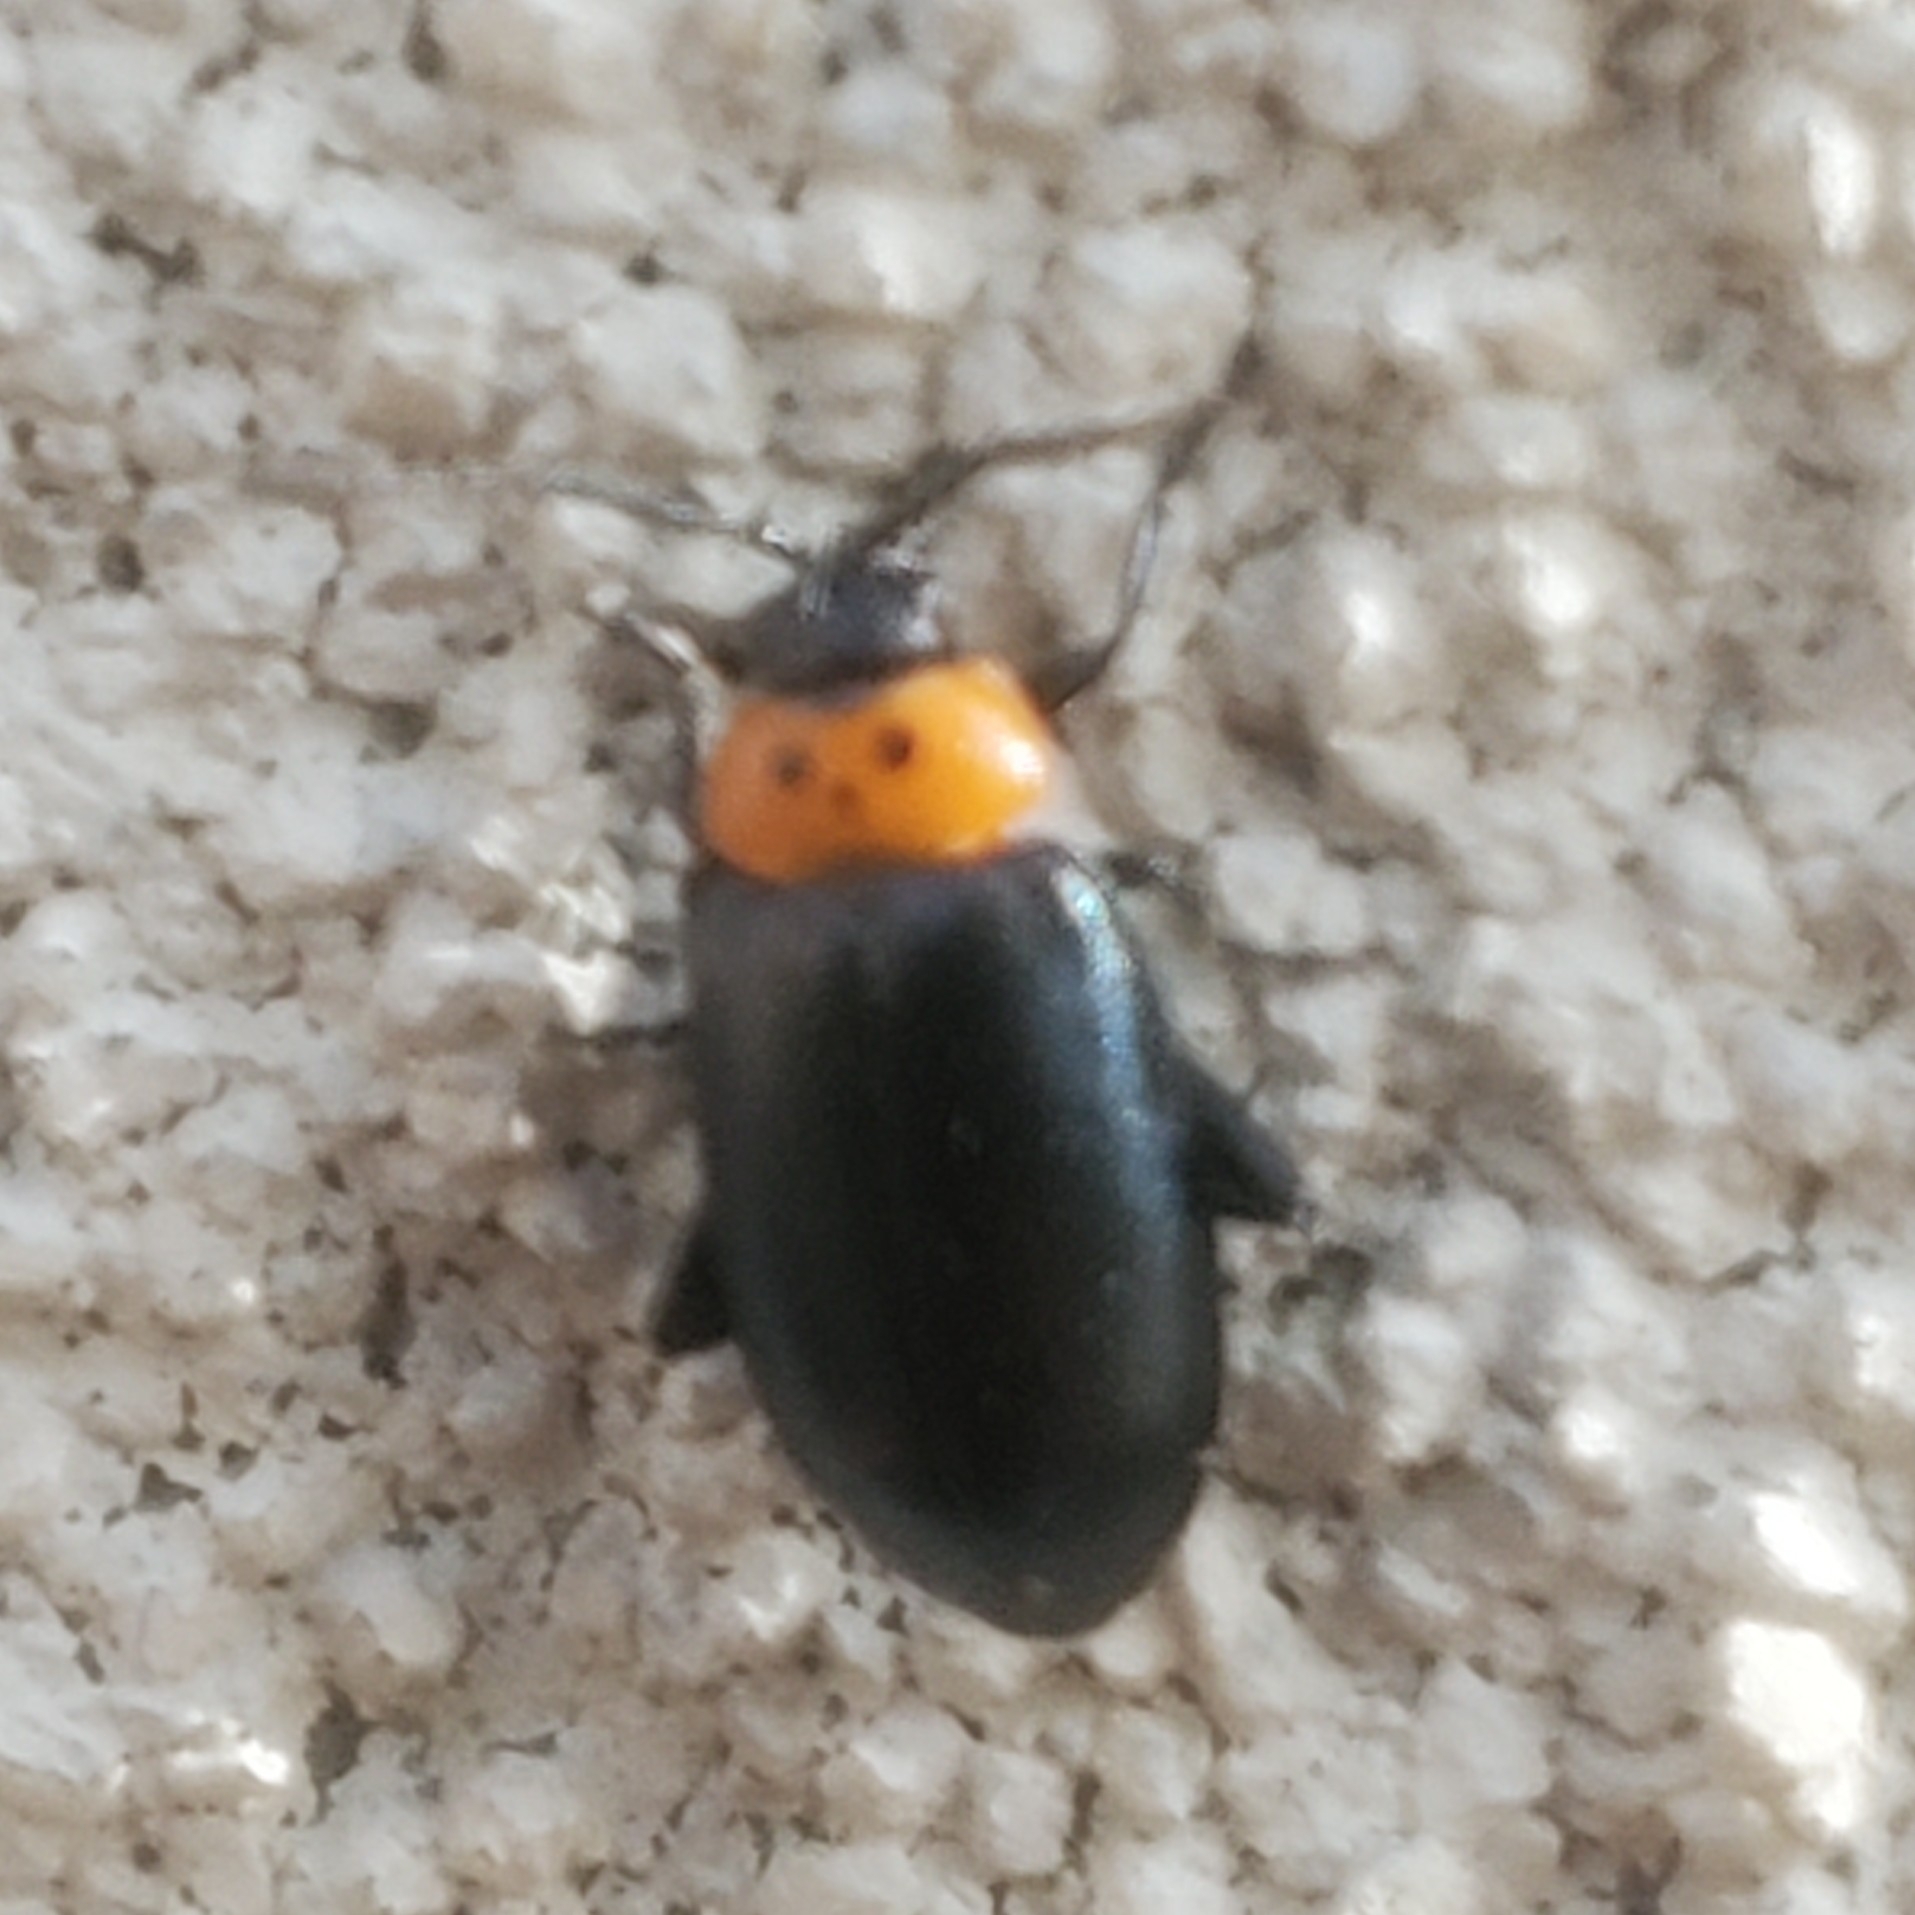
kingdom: Animalia
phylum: Arthropoda
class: Insecta
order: Coleoptera
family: Chrysomelidae
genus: Disonycha
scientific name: Disonycha triangularis
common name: Three-spotted flea beetle
